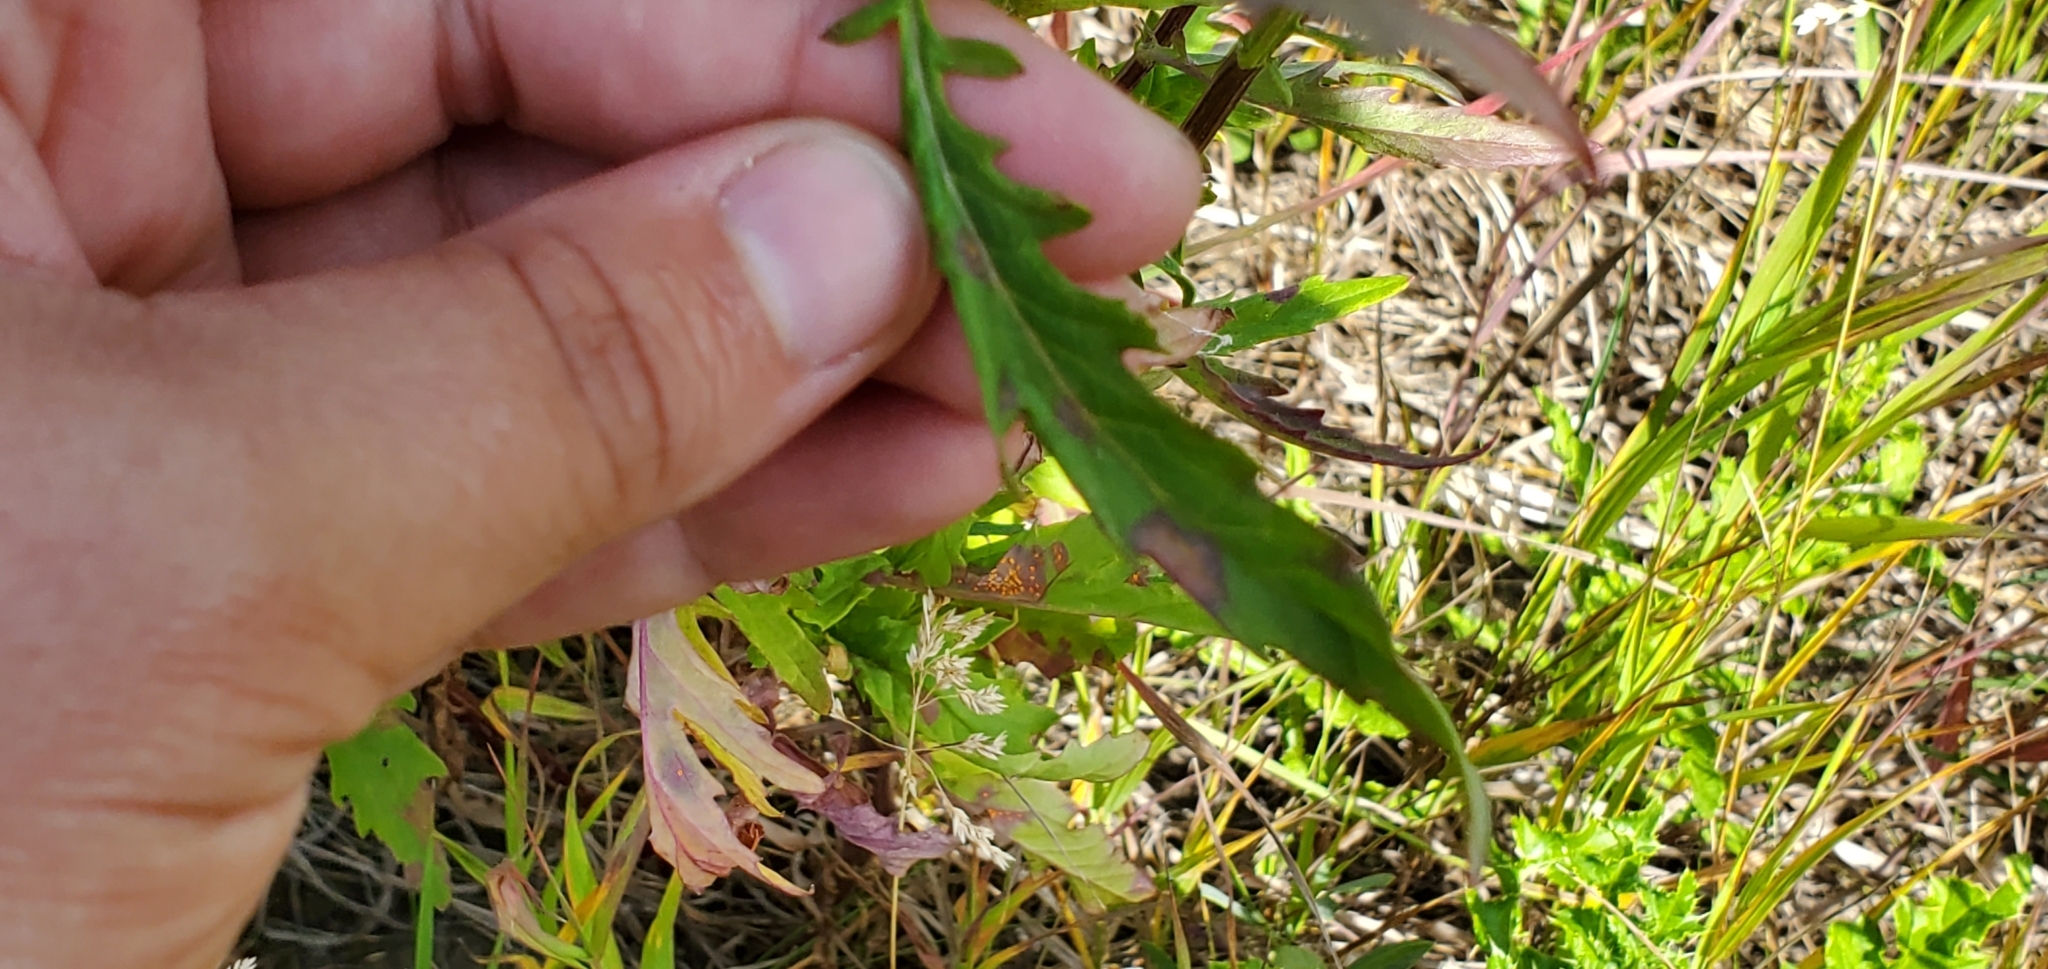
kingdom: Plantae
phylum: Tracheophyta
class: Magnoliopsida
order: Asterales
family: Asteraceae
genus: Senecio
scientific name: Senecio eremophilus
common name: Desert ragwort
